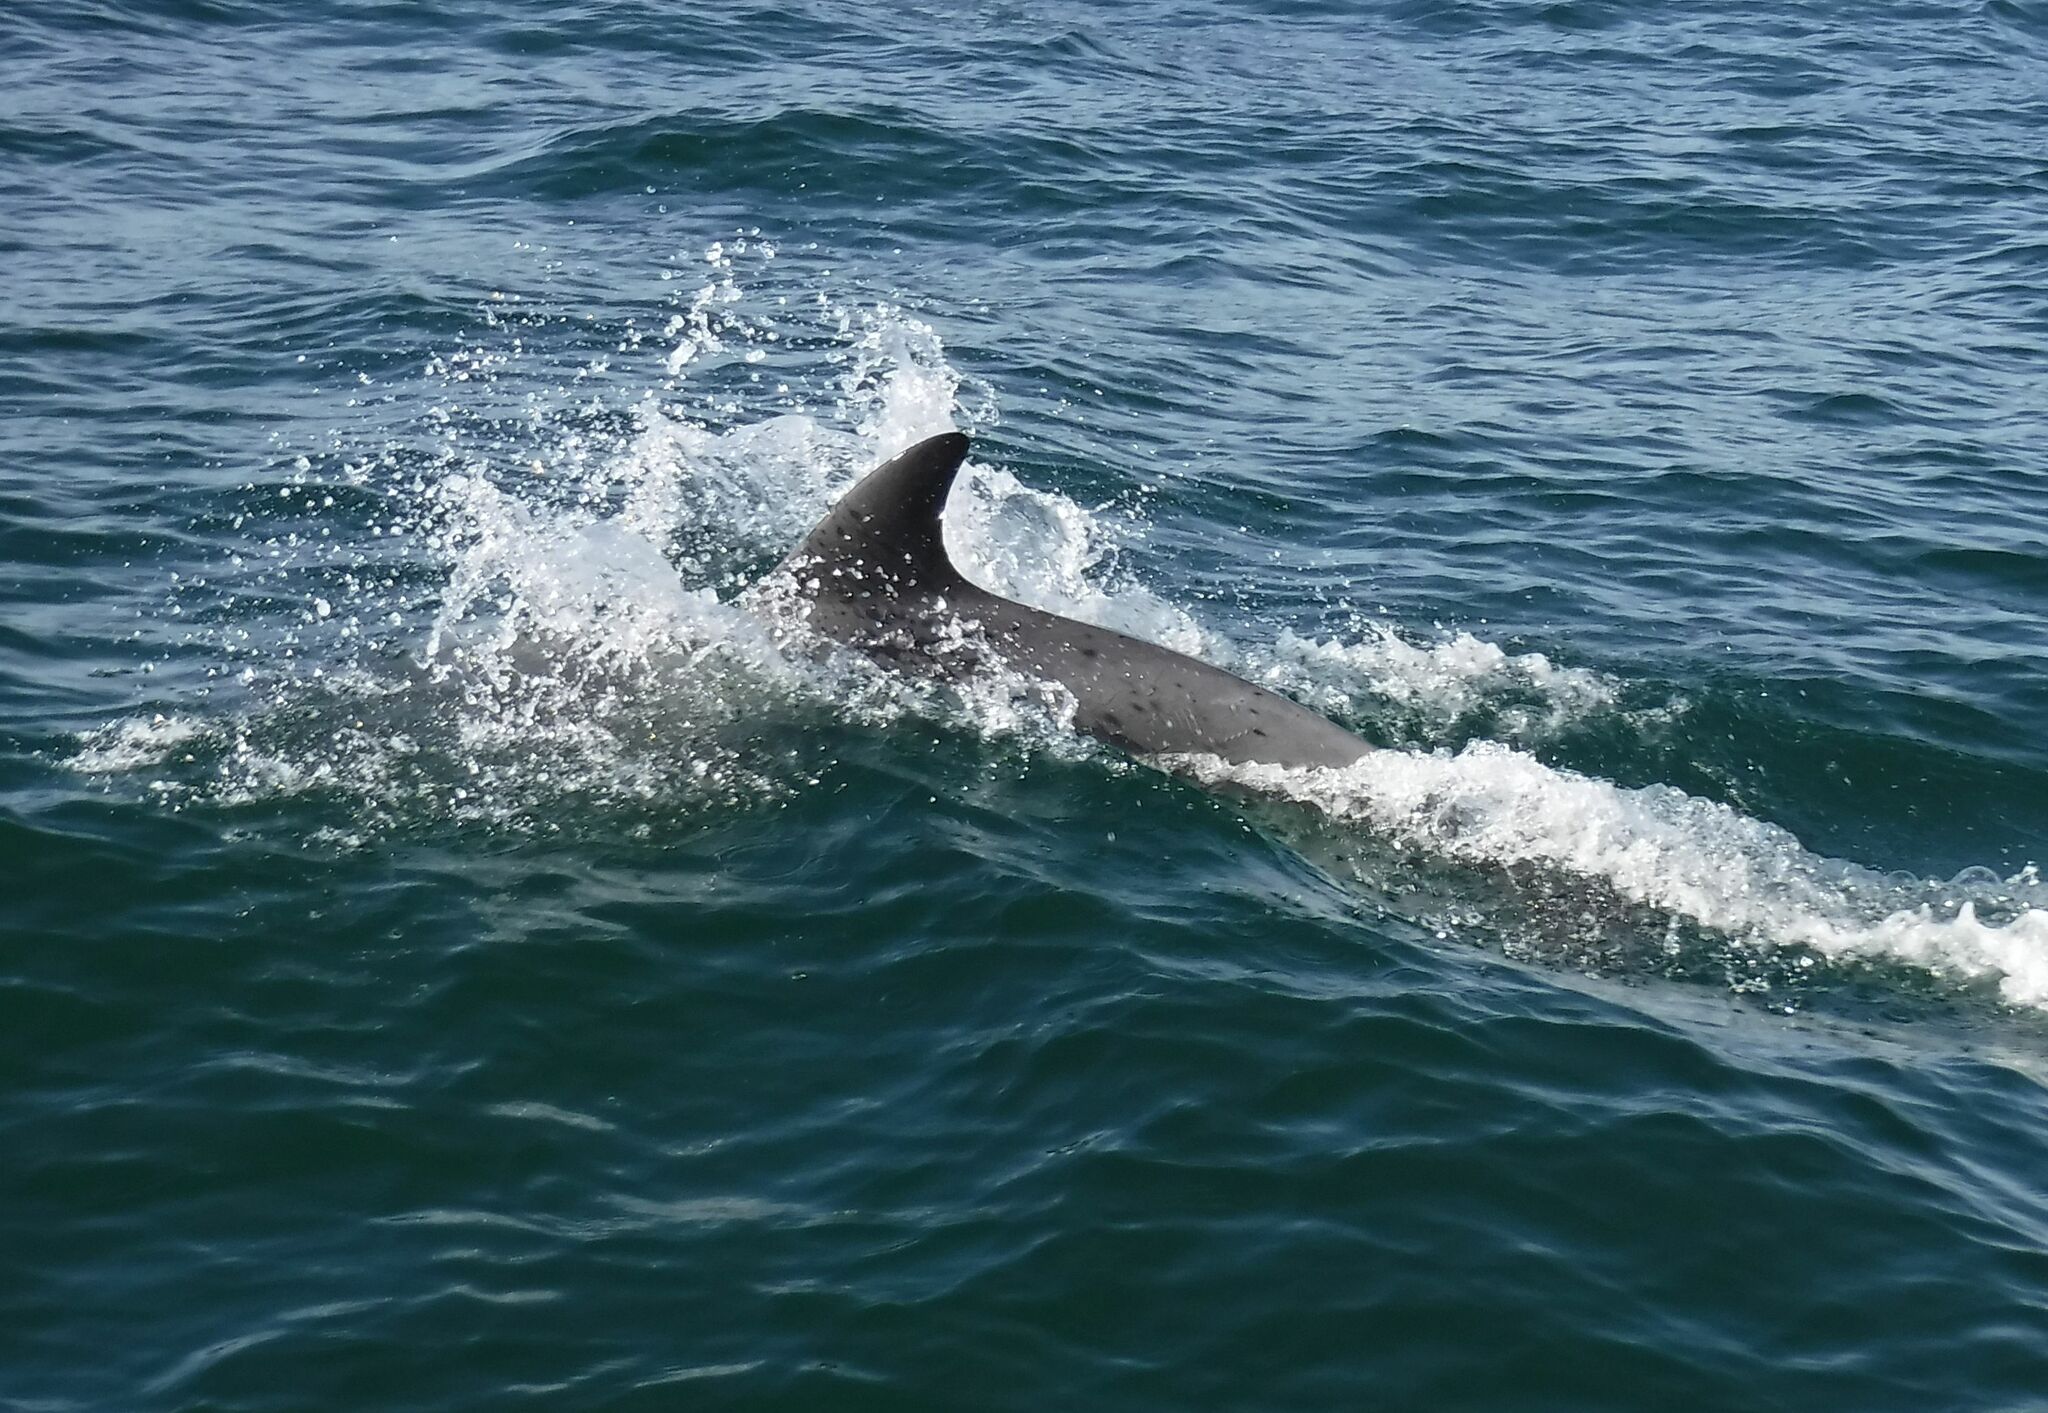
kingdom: Animalia
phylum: Chordata
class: Mammalia
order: Cetacea
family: Delphinidae
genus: Tursiops
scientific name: Tursiops truncatus
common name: Bottlenose dolphin
